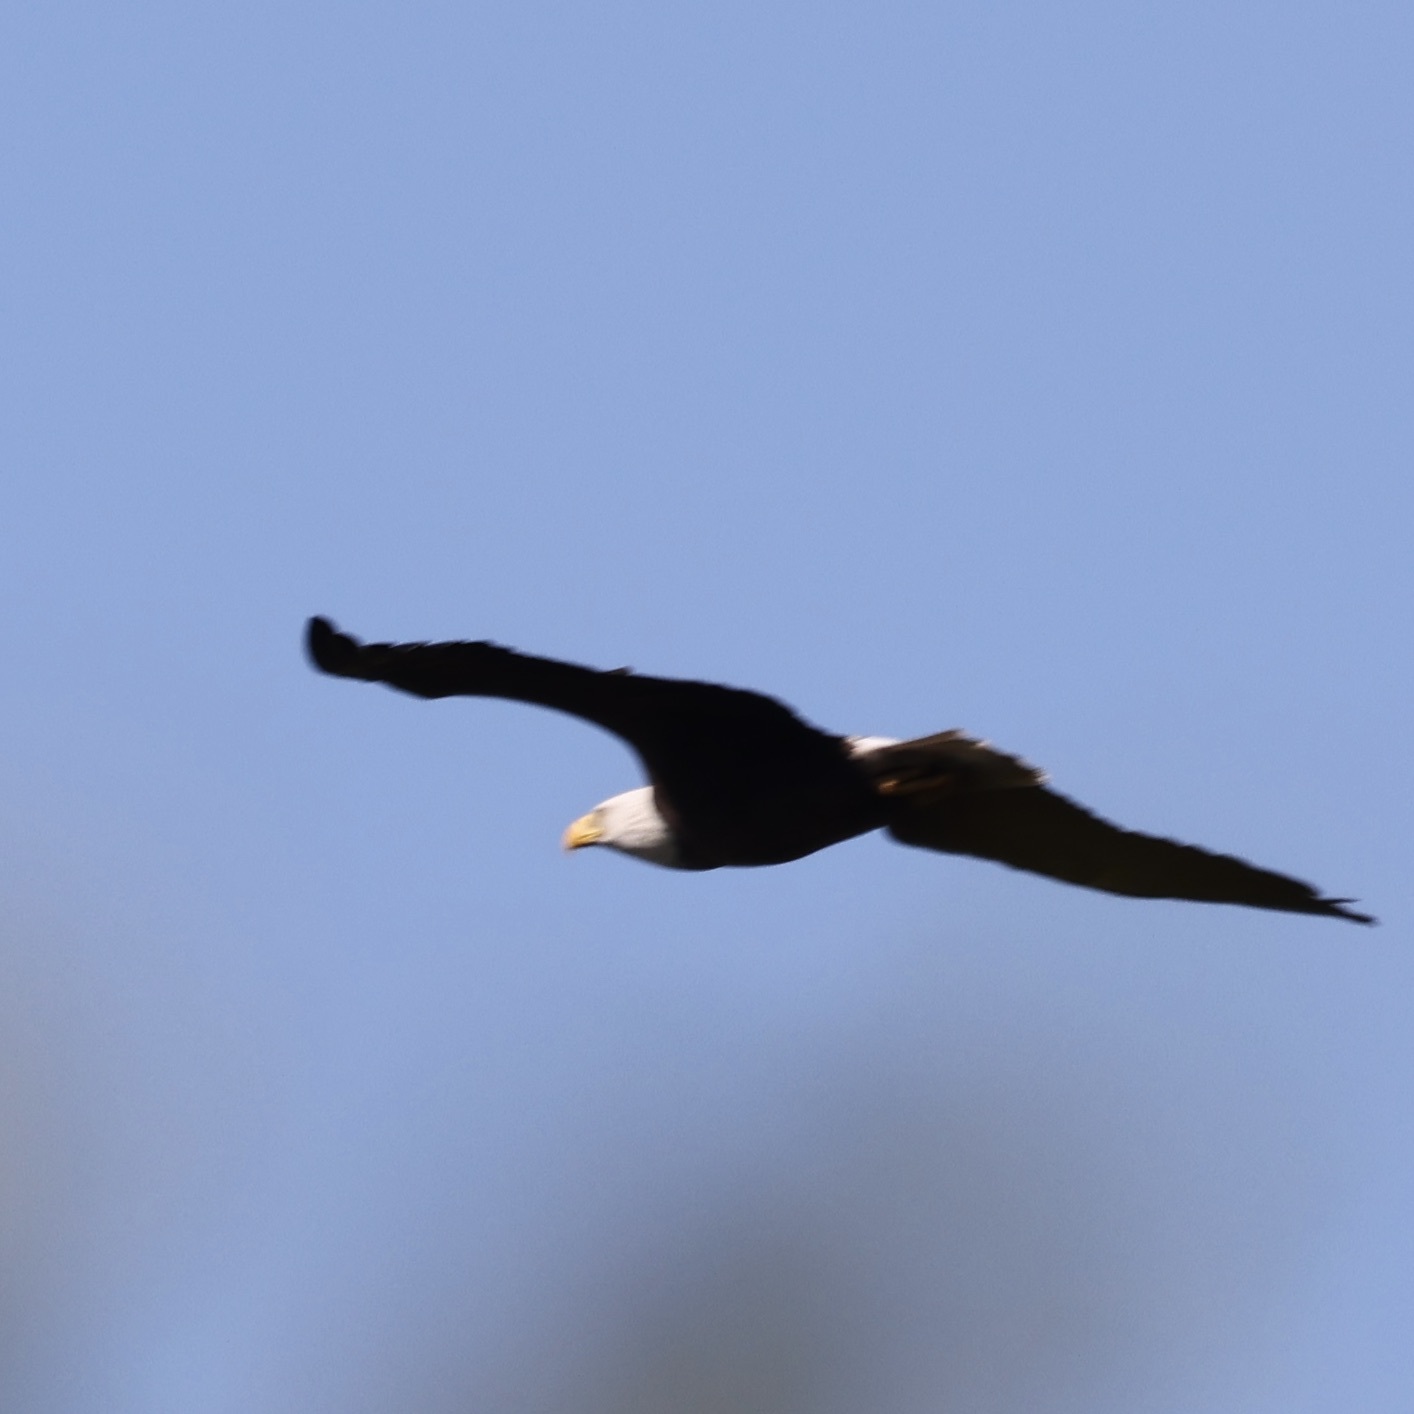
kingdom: Animalia
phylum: Chordata
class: Aves
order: Accipitriformes
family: Accipitridae
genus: Haliaeetus
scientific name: Haliaeetus leucocephalus
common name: Bald eagle
